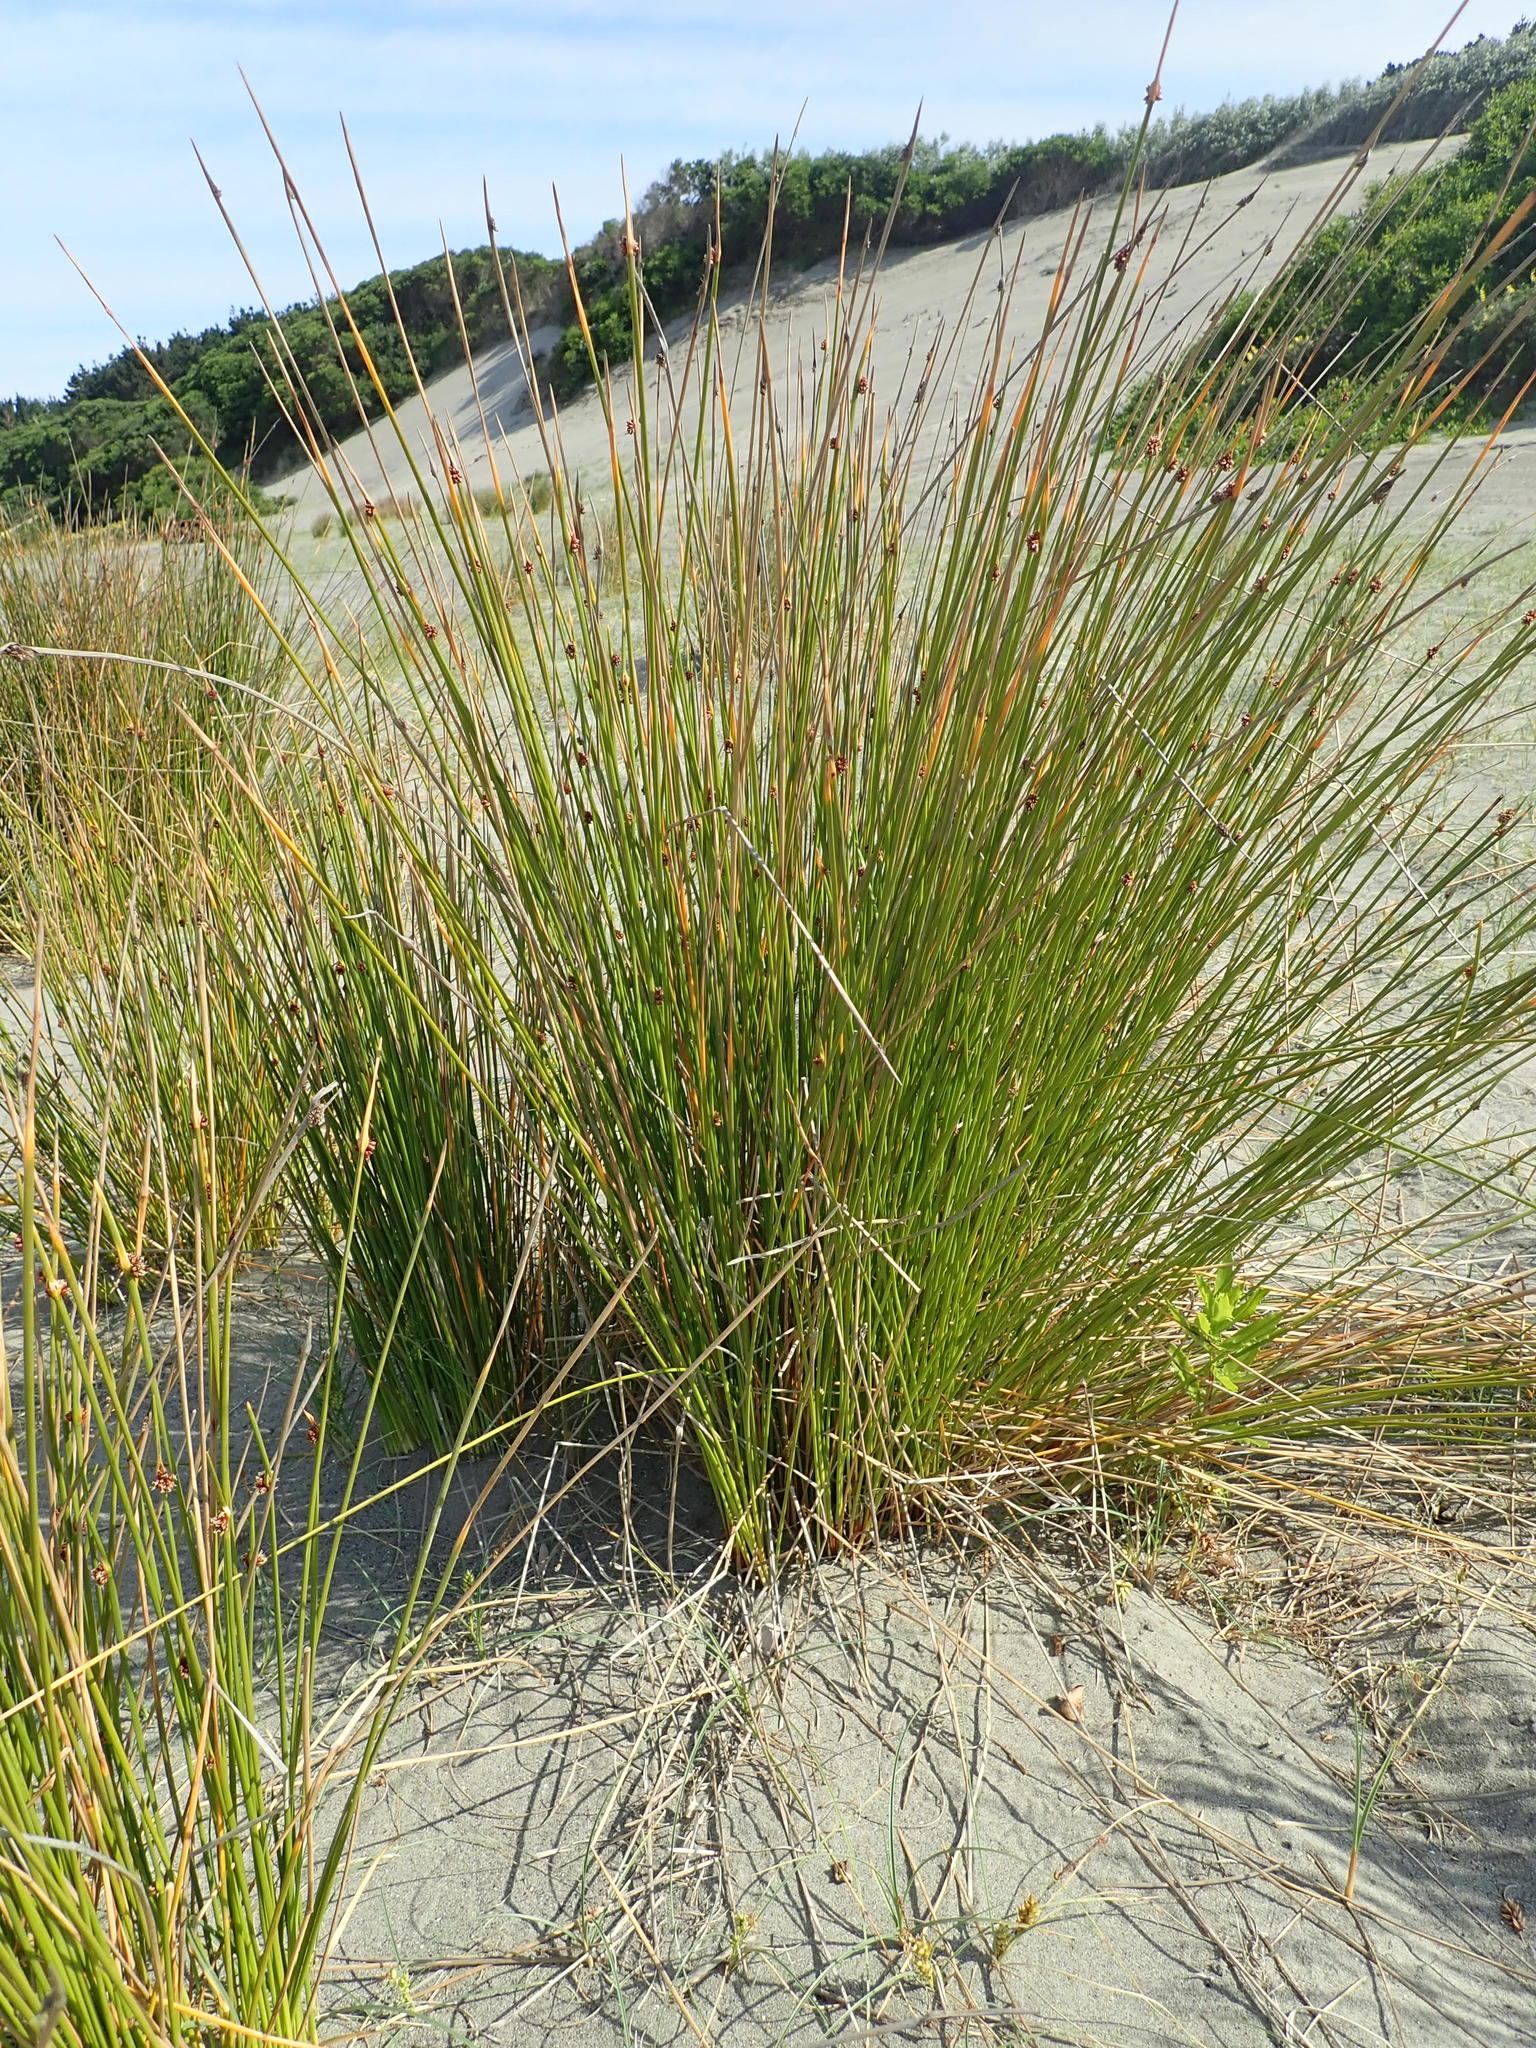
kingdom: Plantae
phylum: Tracheophyta
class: Liliopsida
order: Poales
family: Cyperaceae
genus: Ficinia
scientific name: Ficinia nodosa
